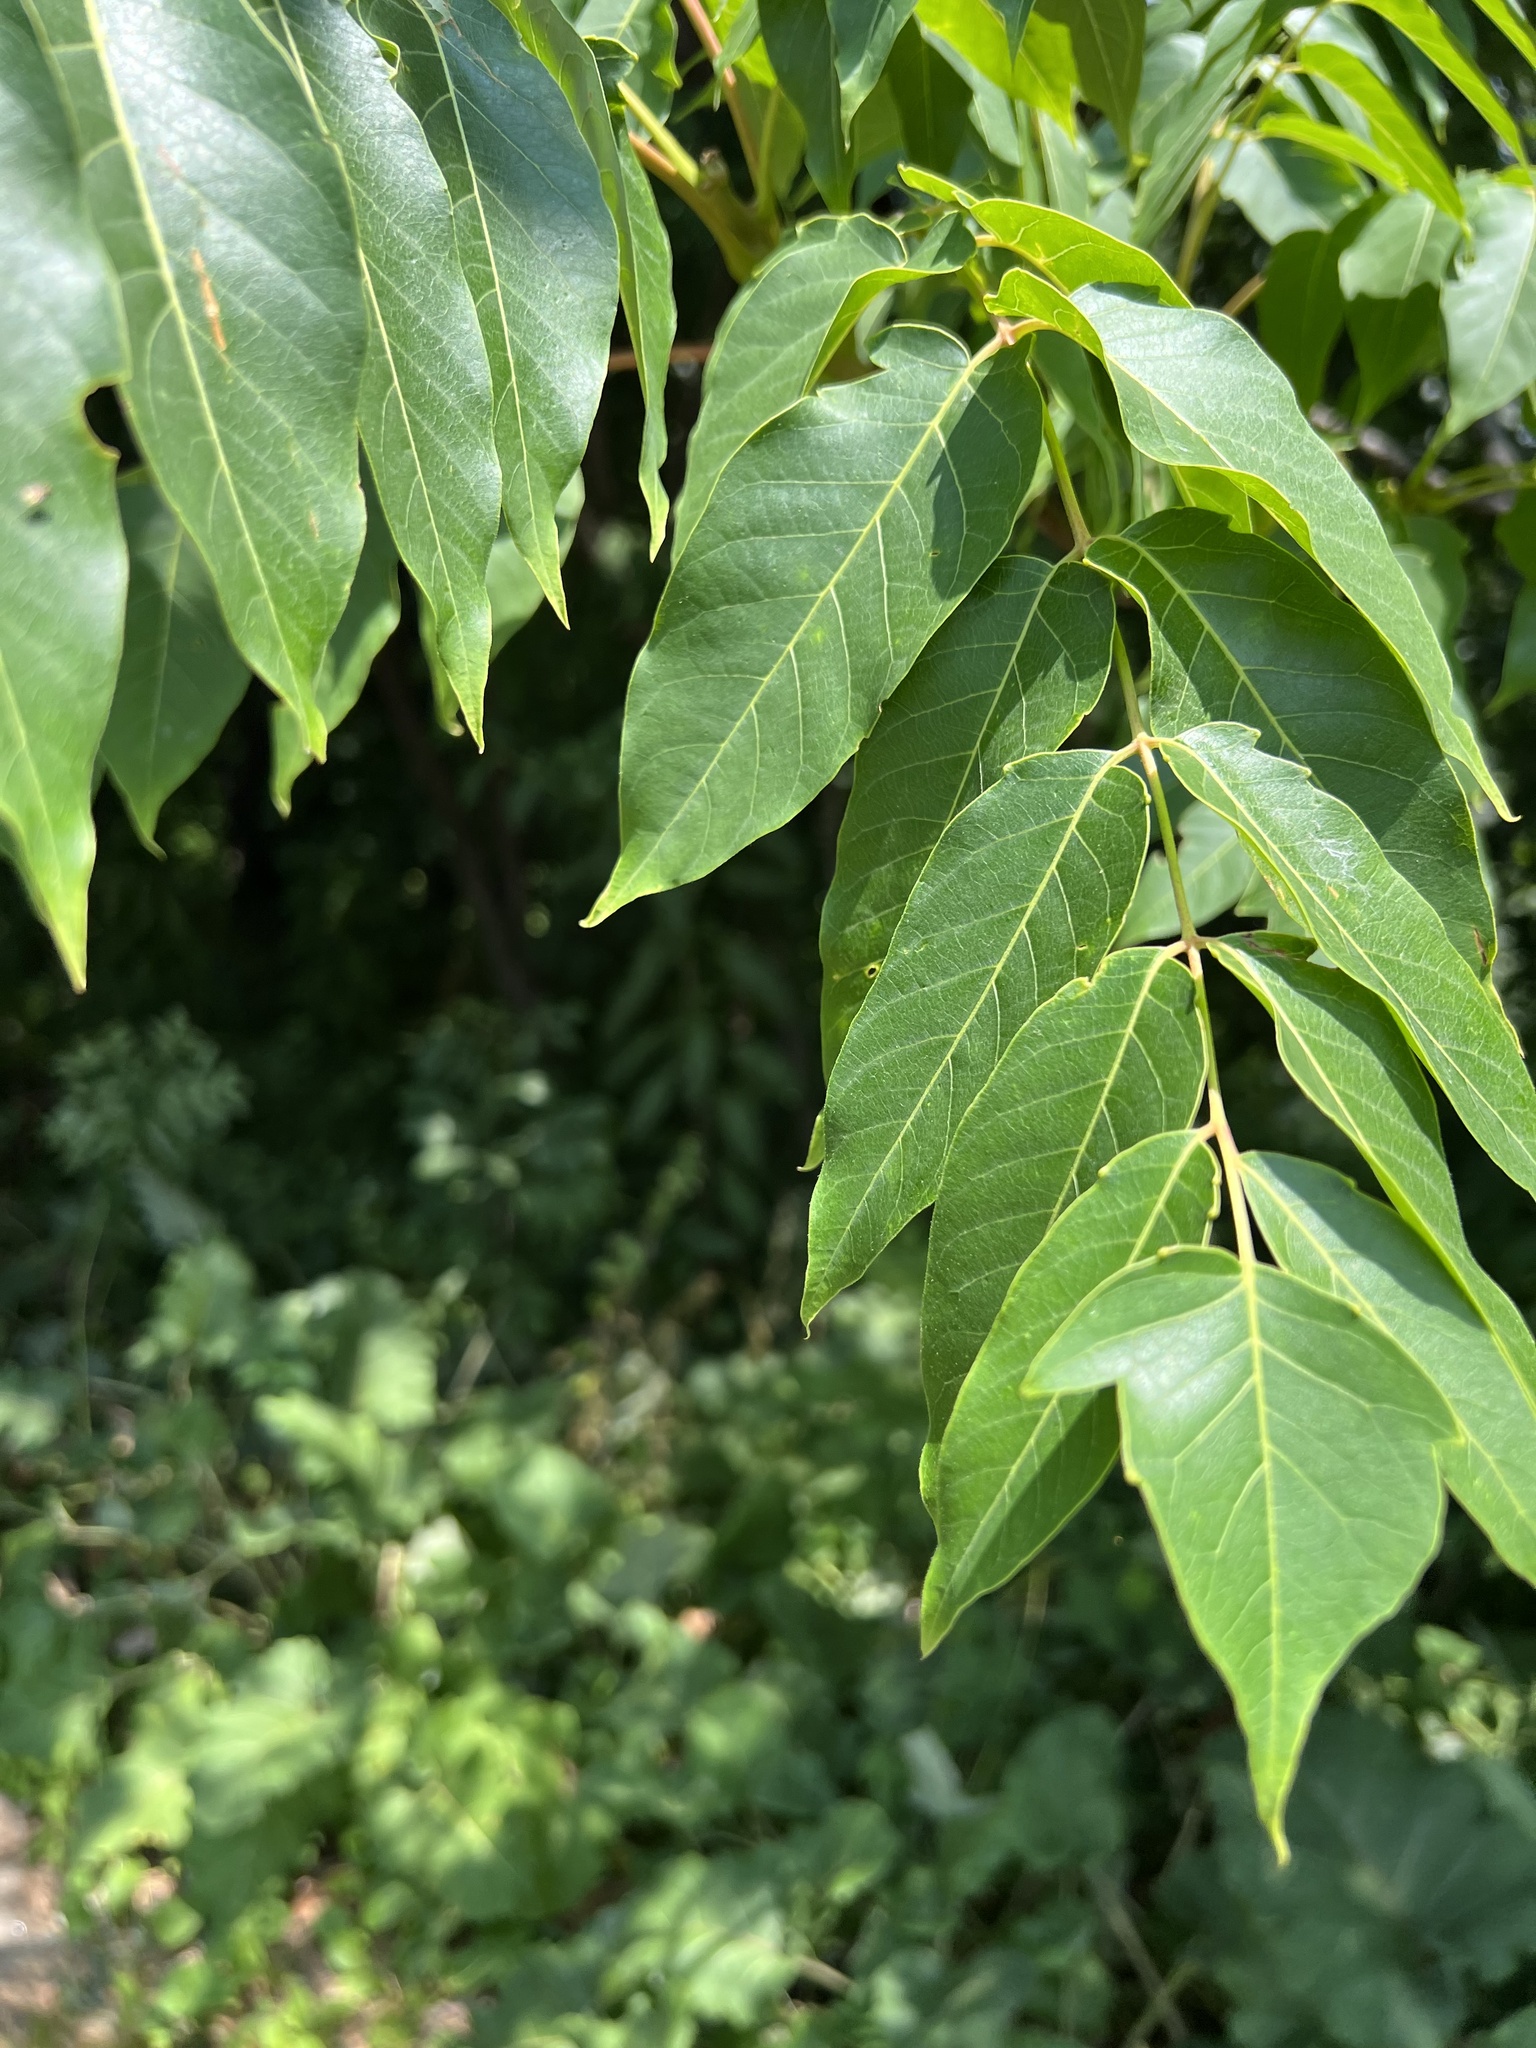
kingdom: Plantae
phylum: Tracheophyta
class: Magnoliopsida
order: Sapindales
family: Simaroubaceae
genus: Ailanthus
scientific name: Ailanthus altissima
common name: Tree-of-heaven
